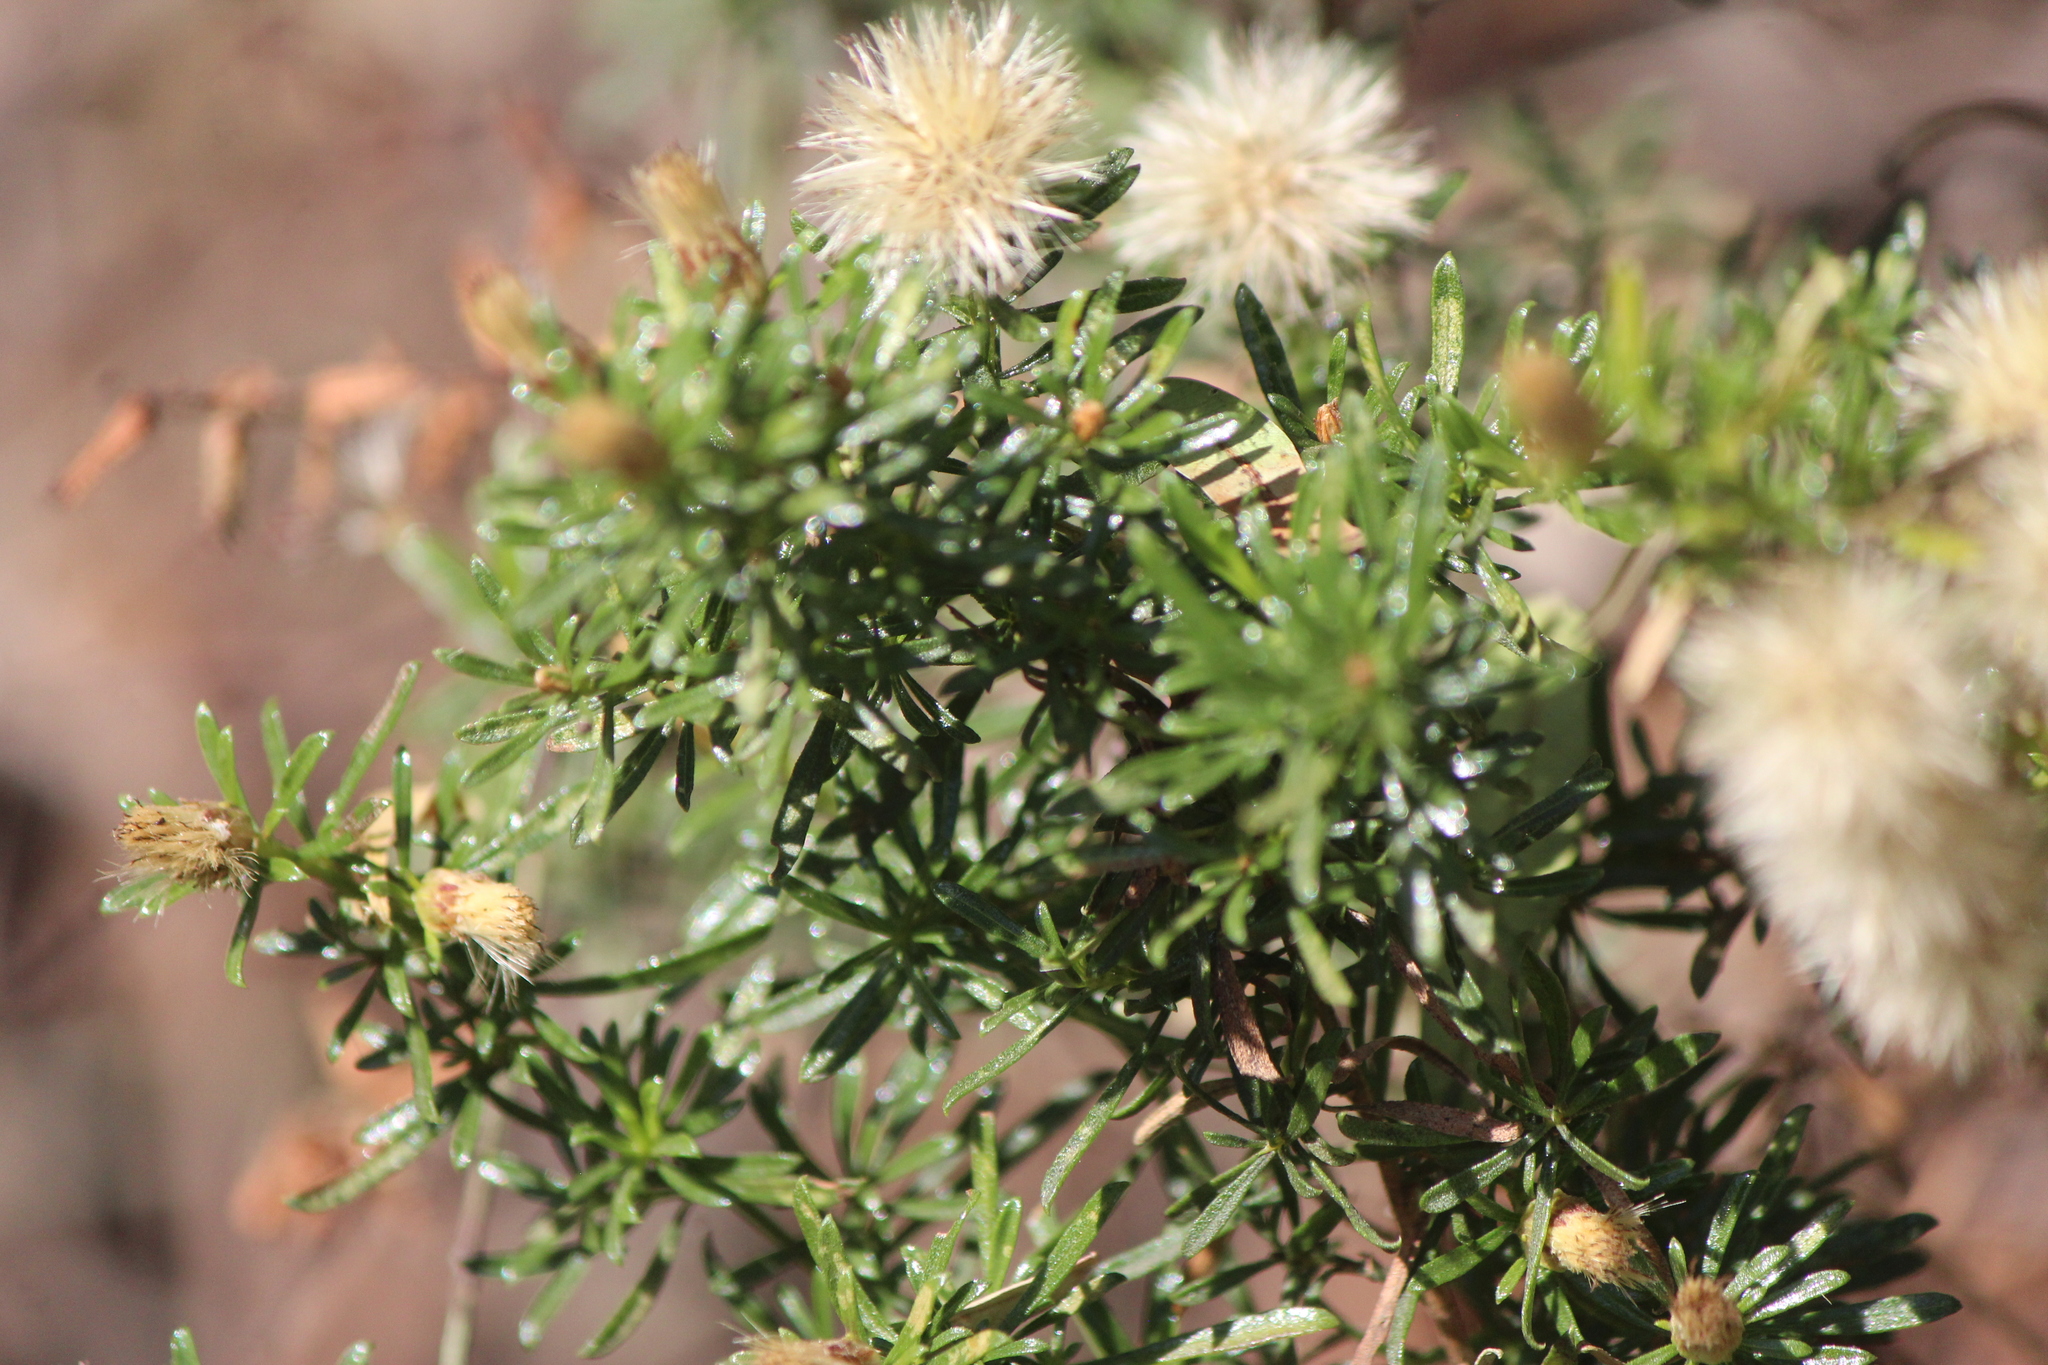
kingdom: Plantae
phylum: Tracheophyta
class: Magnoliopsida
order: Asterales
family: Asteraceae
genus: Baccharis
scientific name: Baccharis ramiflora
